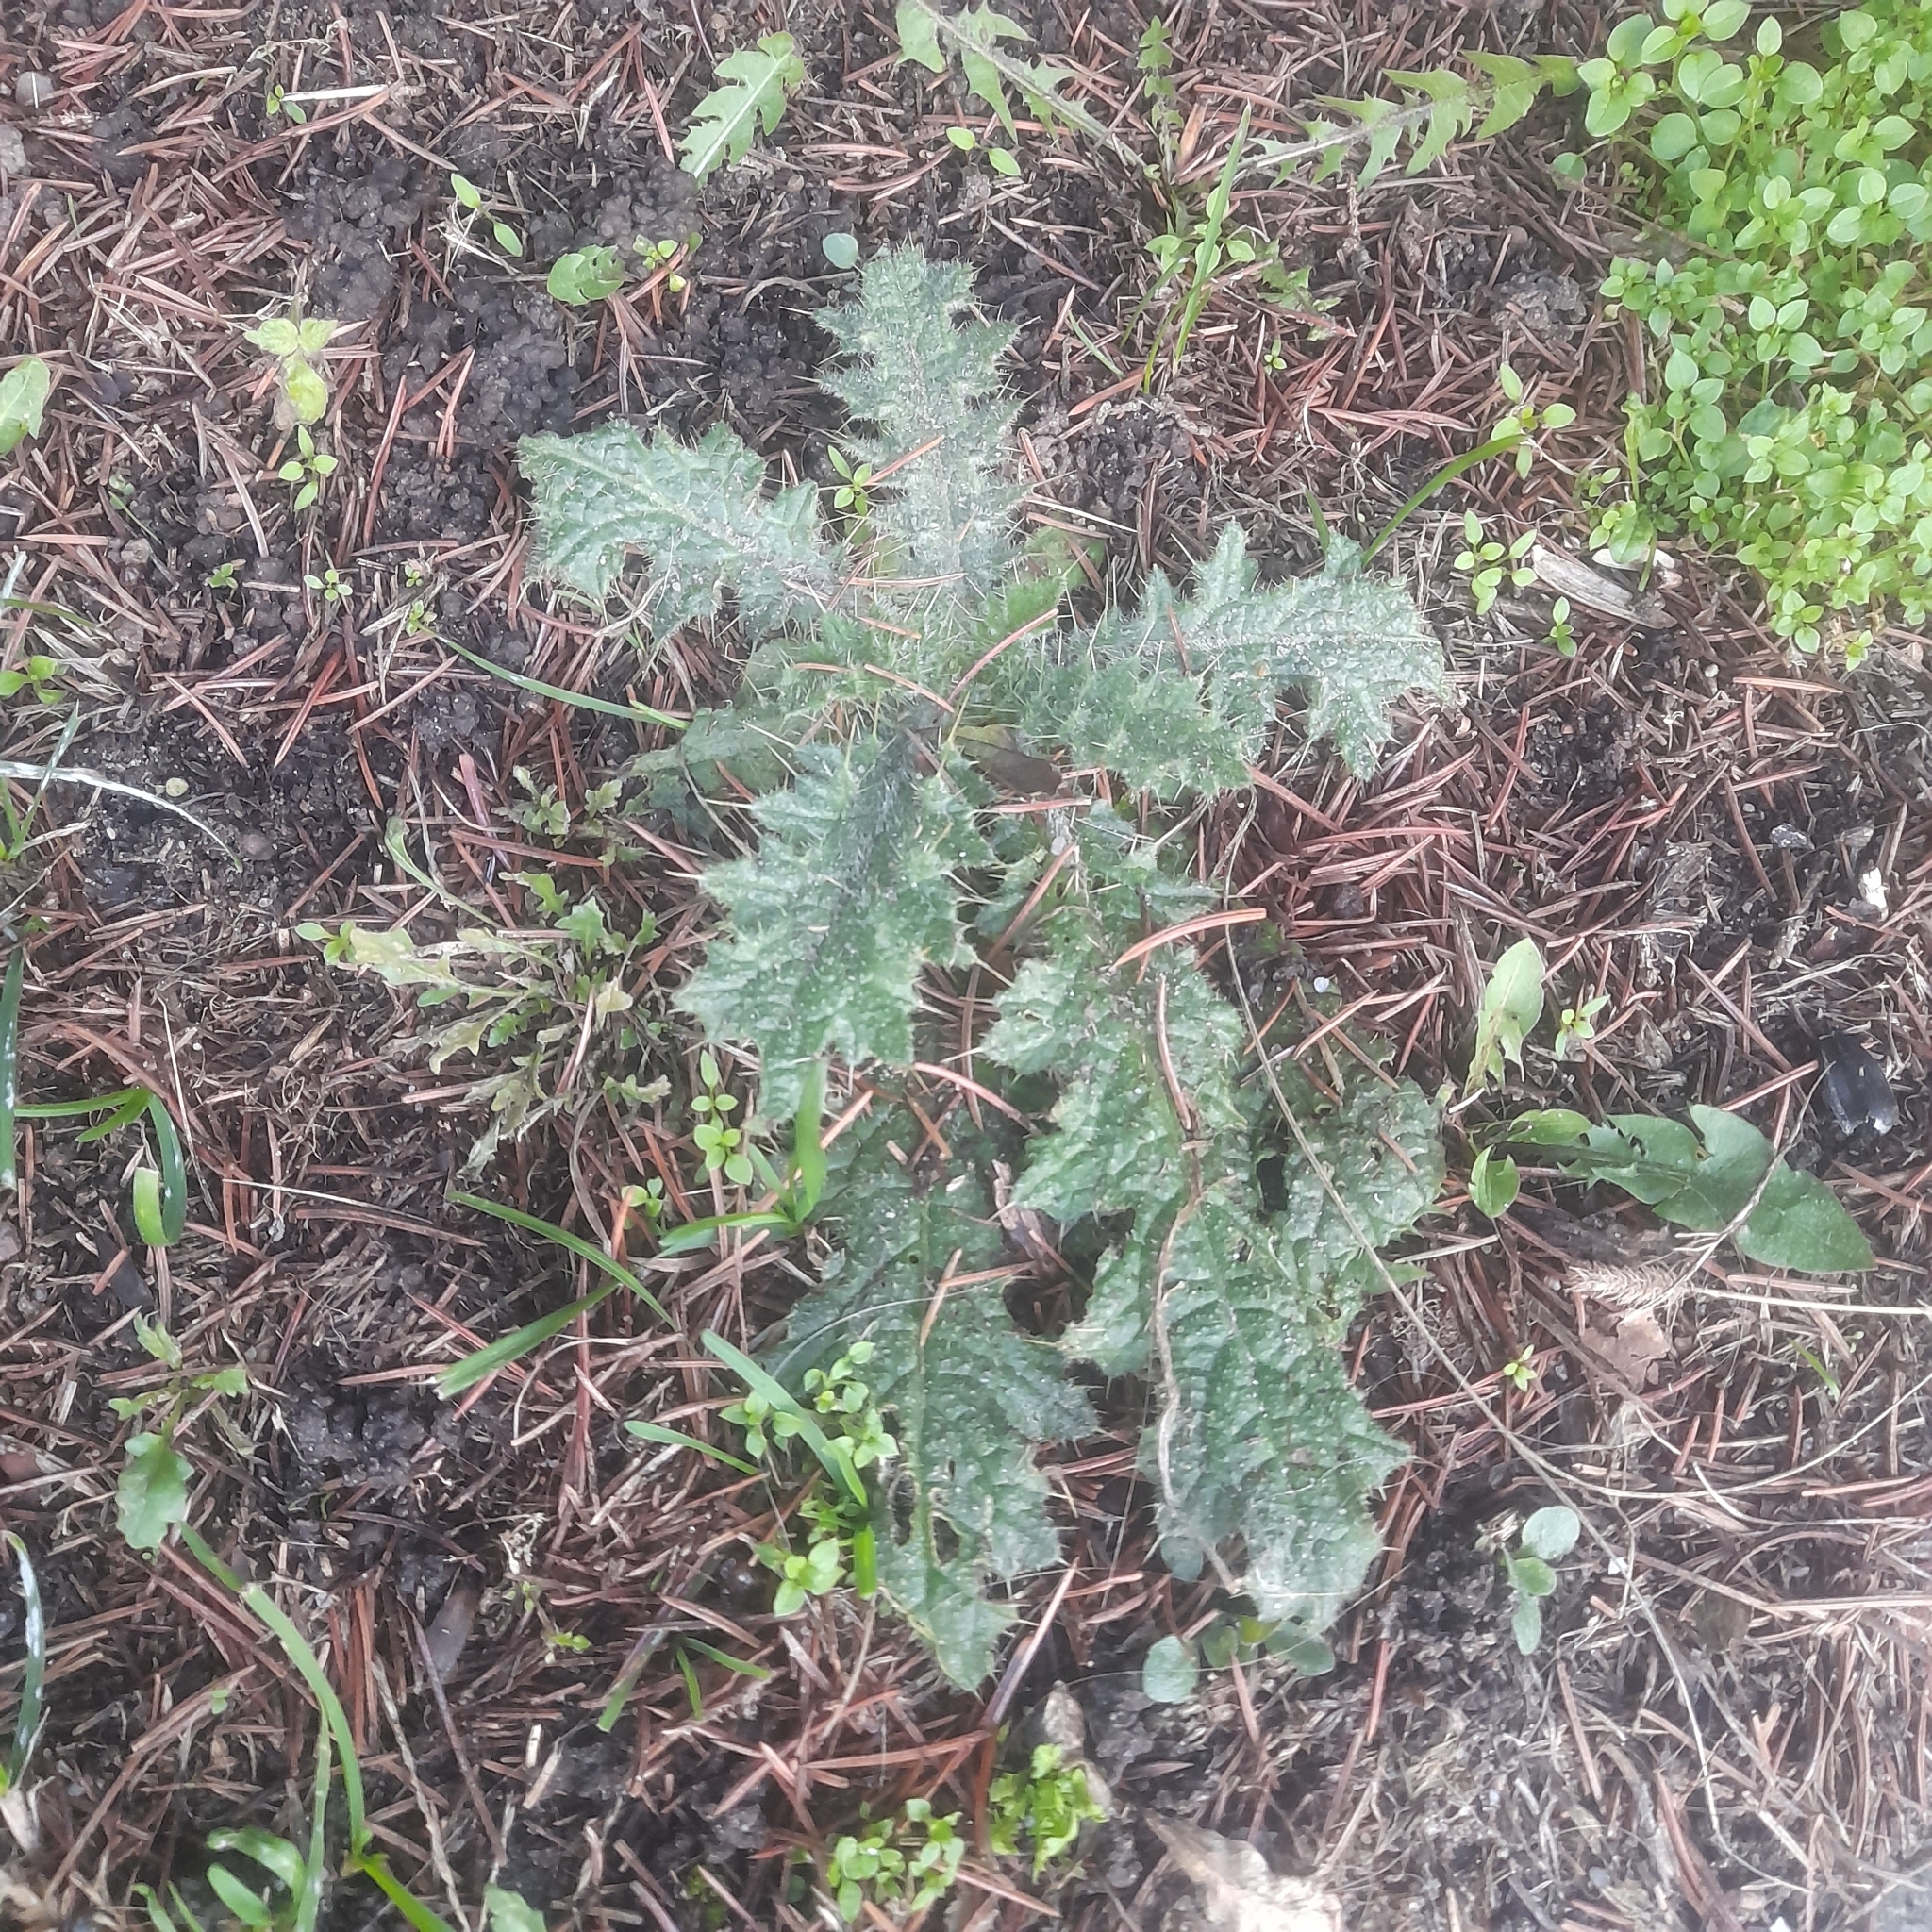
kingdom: Plantae
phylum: Tracheophyta
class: Magnoliopsida
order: Asterales
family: Asteraceae
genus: Cirsium
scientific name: Cirsium vulgare
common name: Bull thistle
